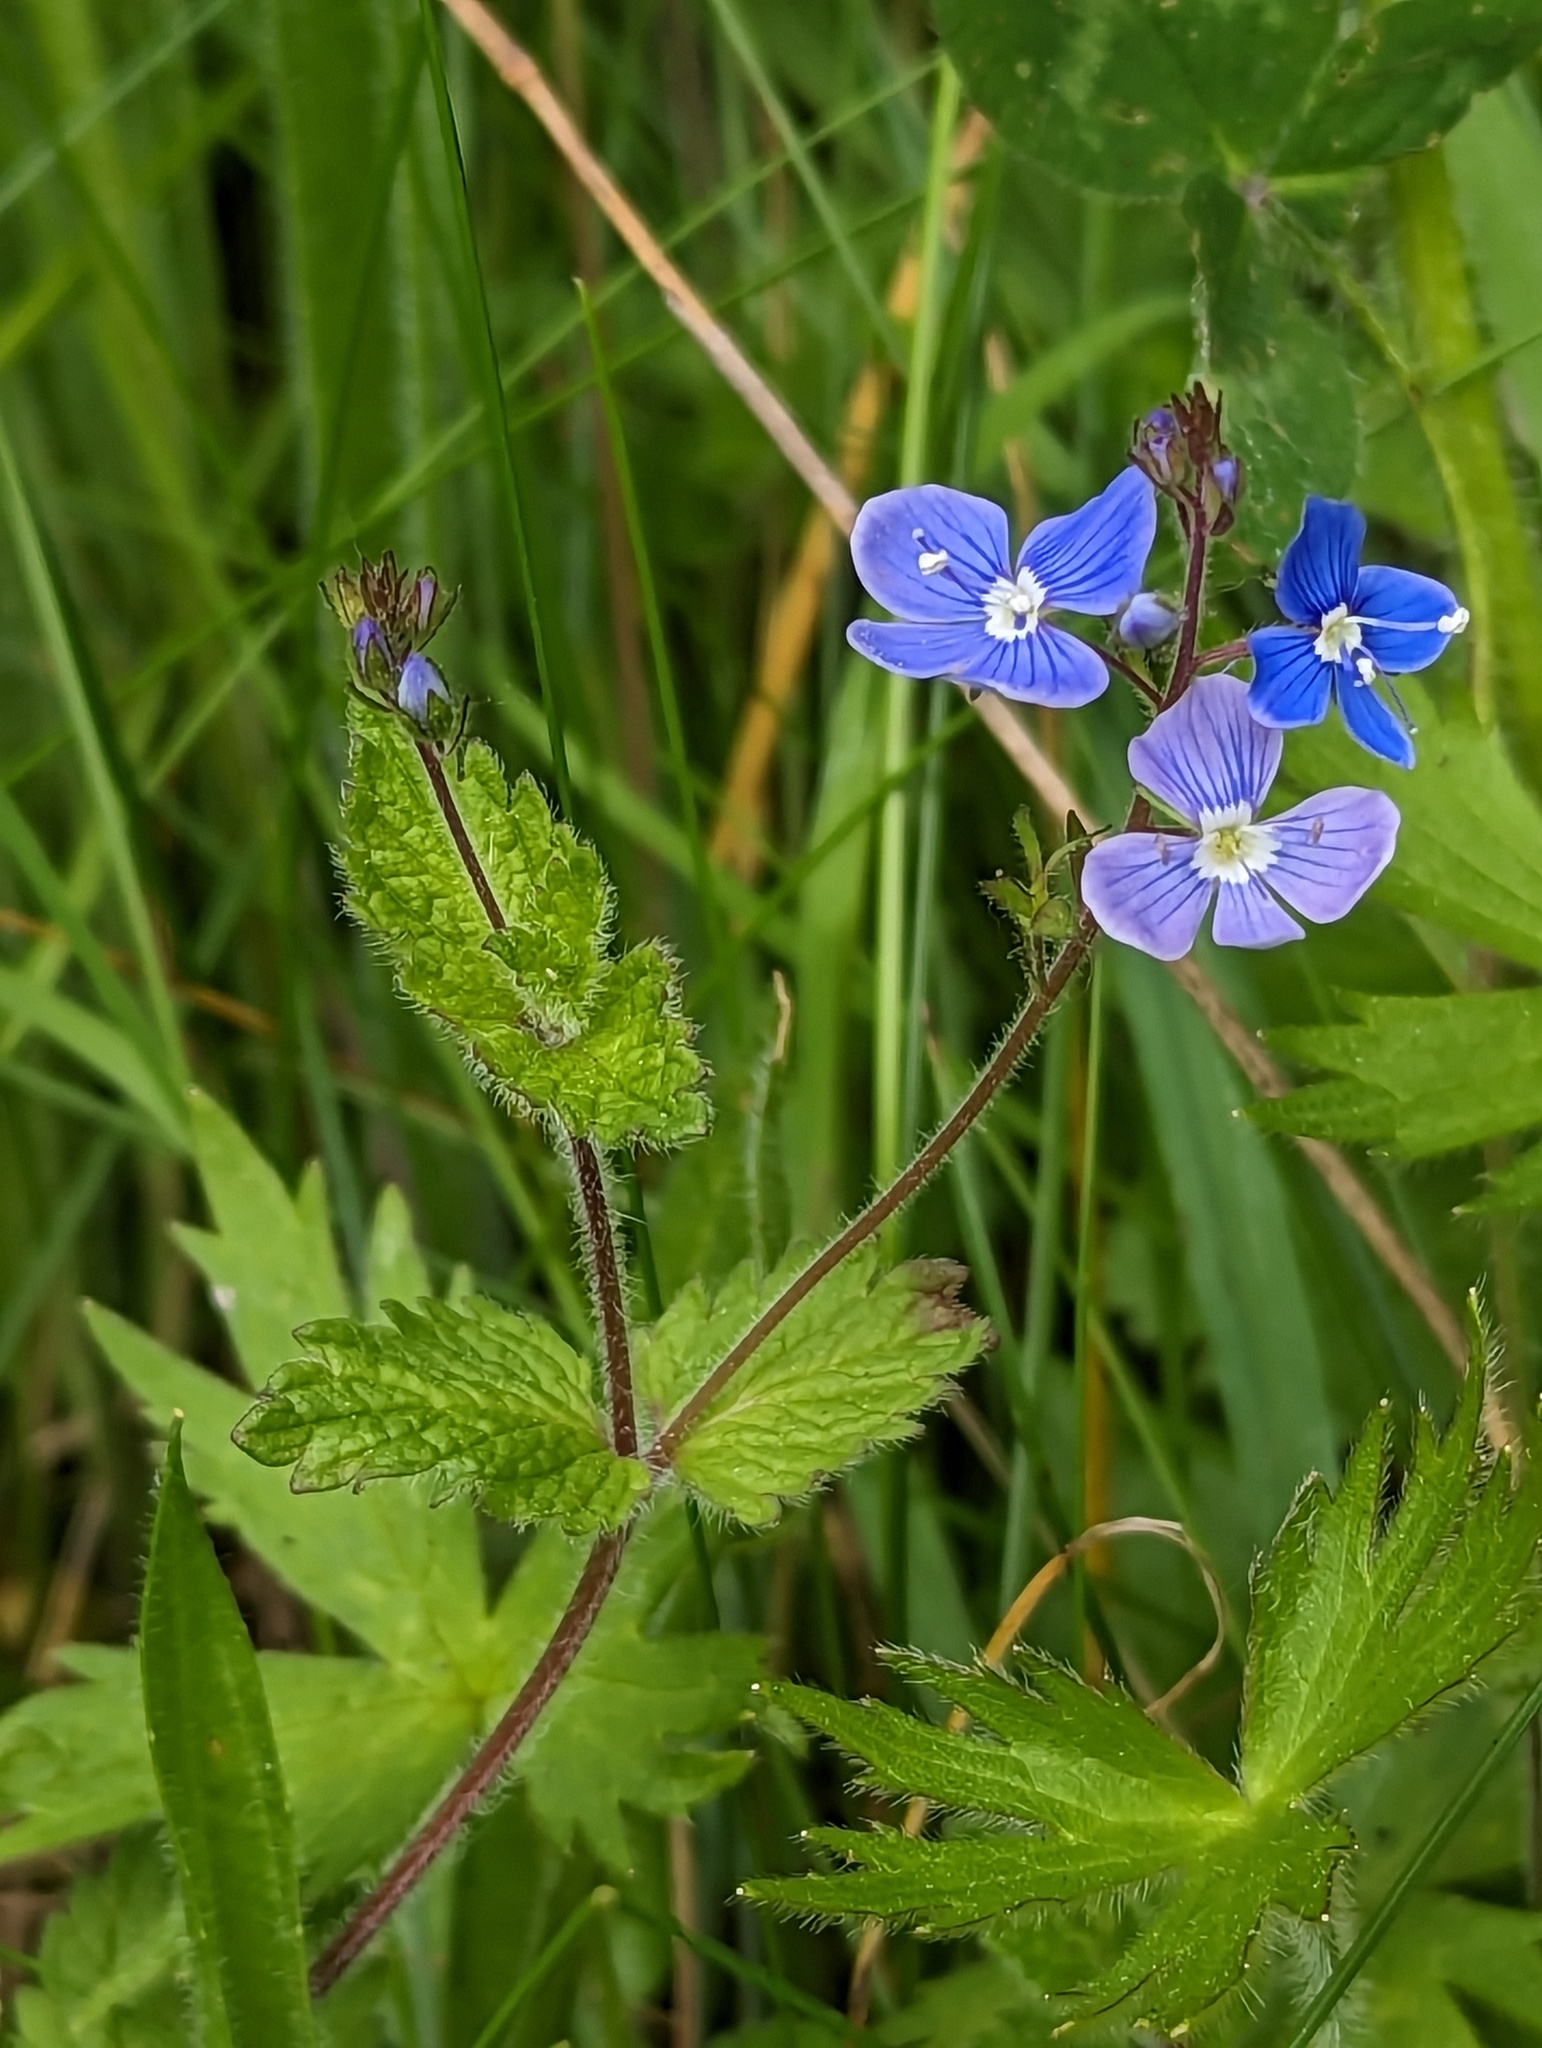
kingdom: Plantae
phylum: Tracheophyta
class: Magnoliopsida
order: Lamiales
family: Plantaginaceae
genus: Veronica
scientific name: Veronica chamaedrys
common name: Germander speedwell
